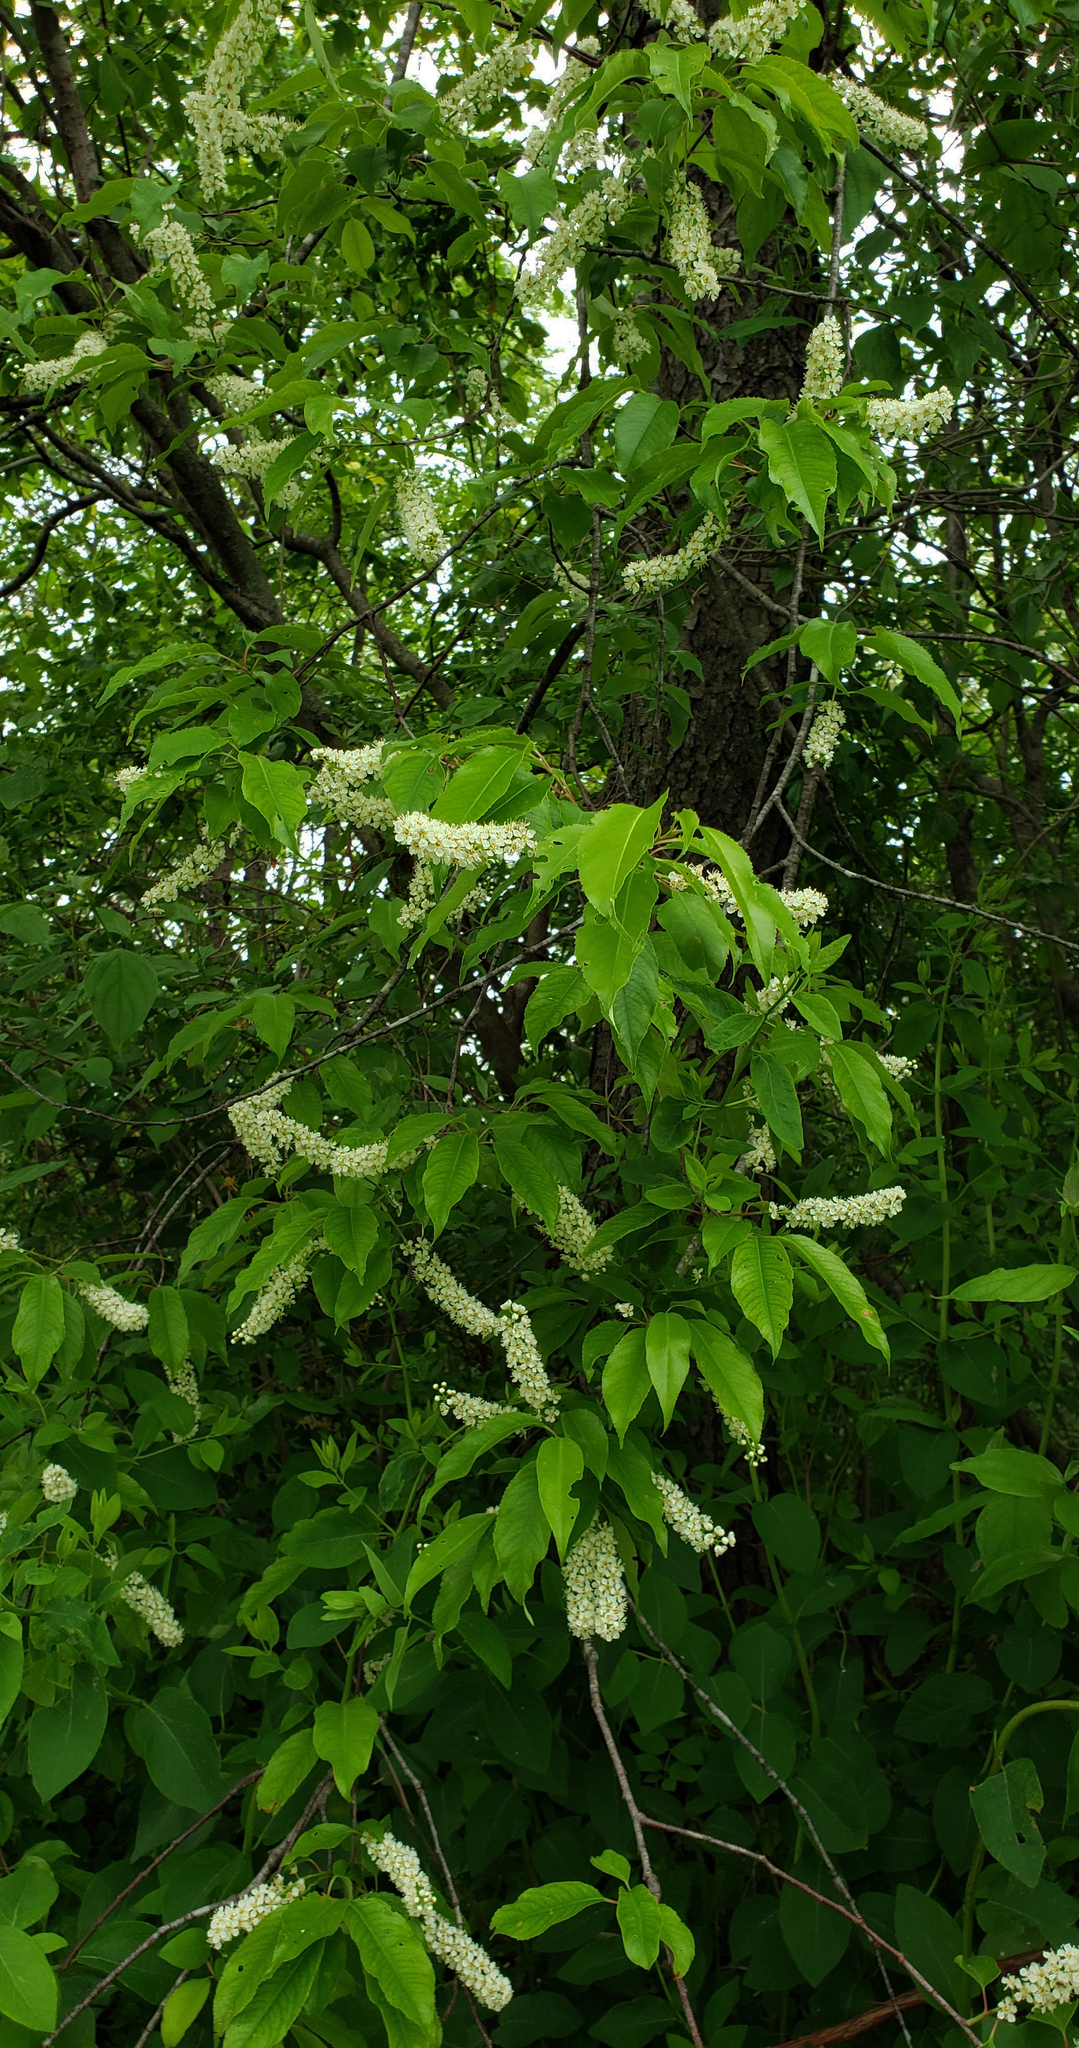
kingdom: Plantae
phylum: Tracheophyta
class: Magnoliopsida
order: Rosales
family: Rosaceae
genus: Prunus
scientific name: Prunus serotina
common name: Black cherry
